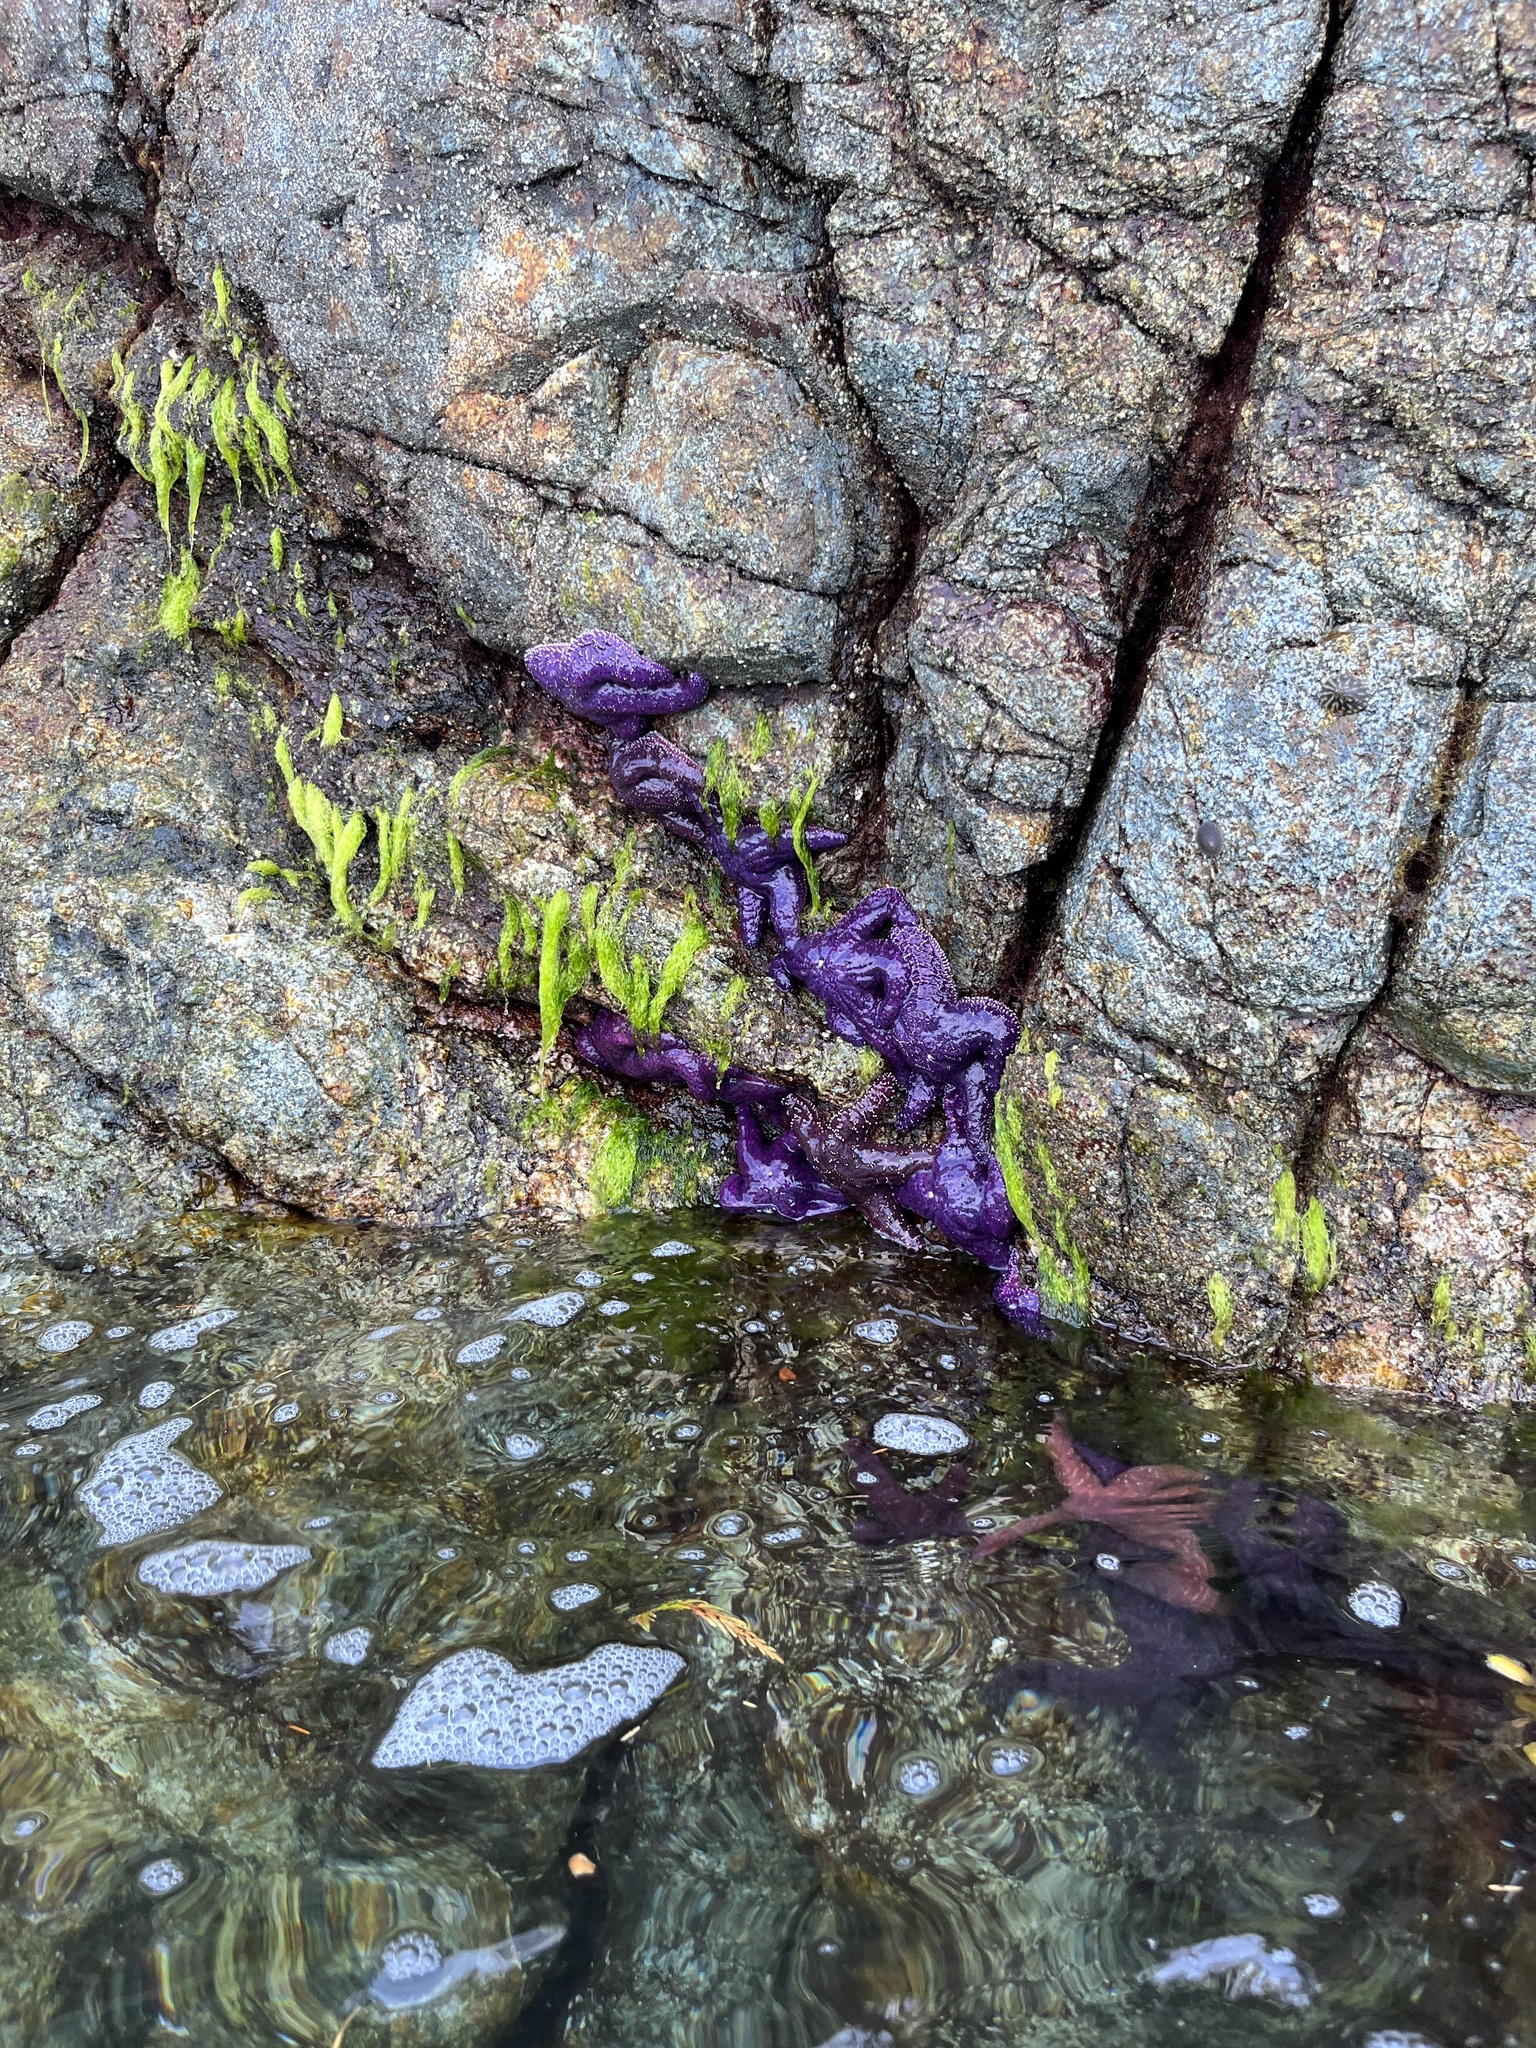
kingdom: Animalia
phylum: Echinodermata
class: Asteroidea
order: Forcipulatida
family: Asteriidae
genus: Pisaster
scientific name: Pisaster ochraceus
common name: Ochre stars
